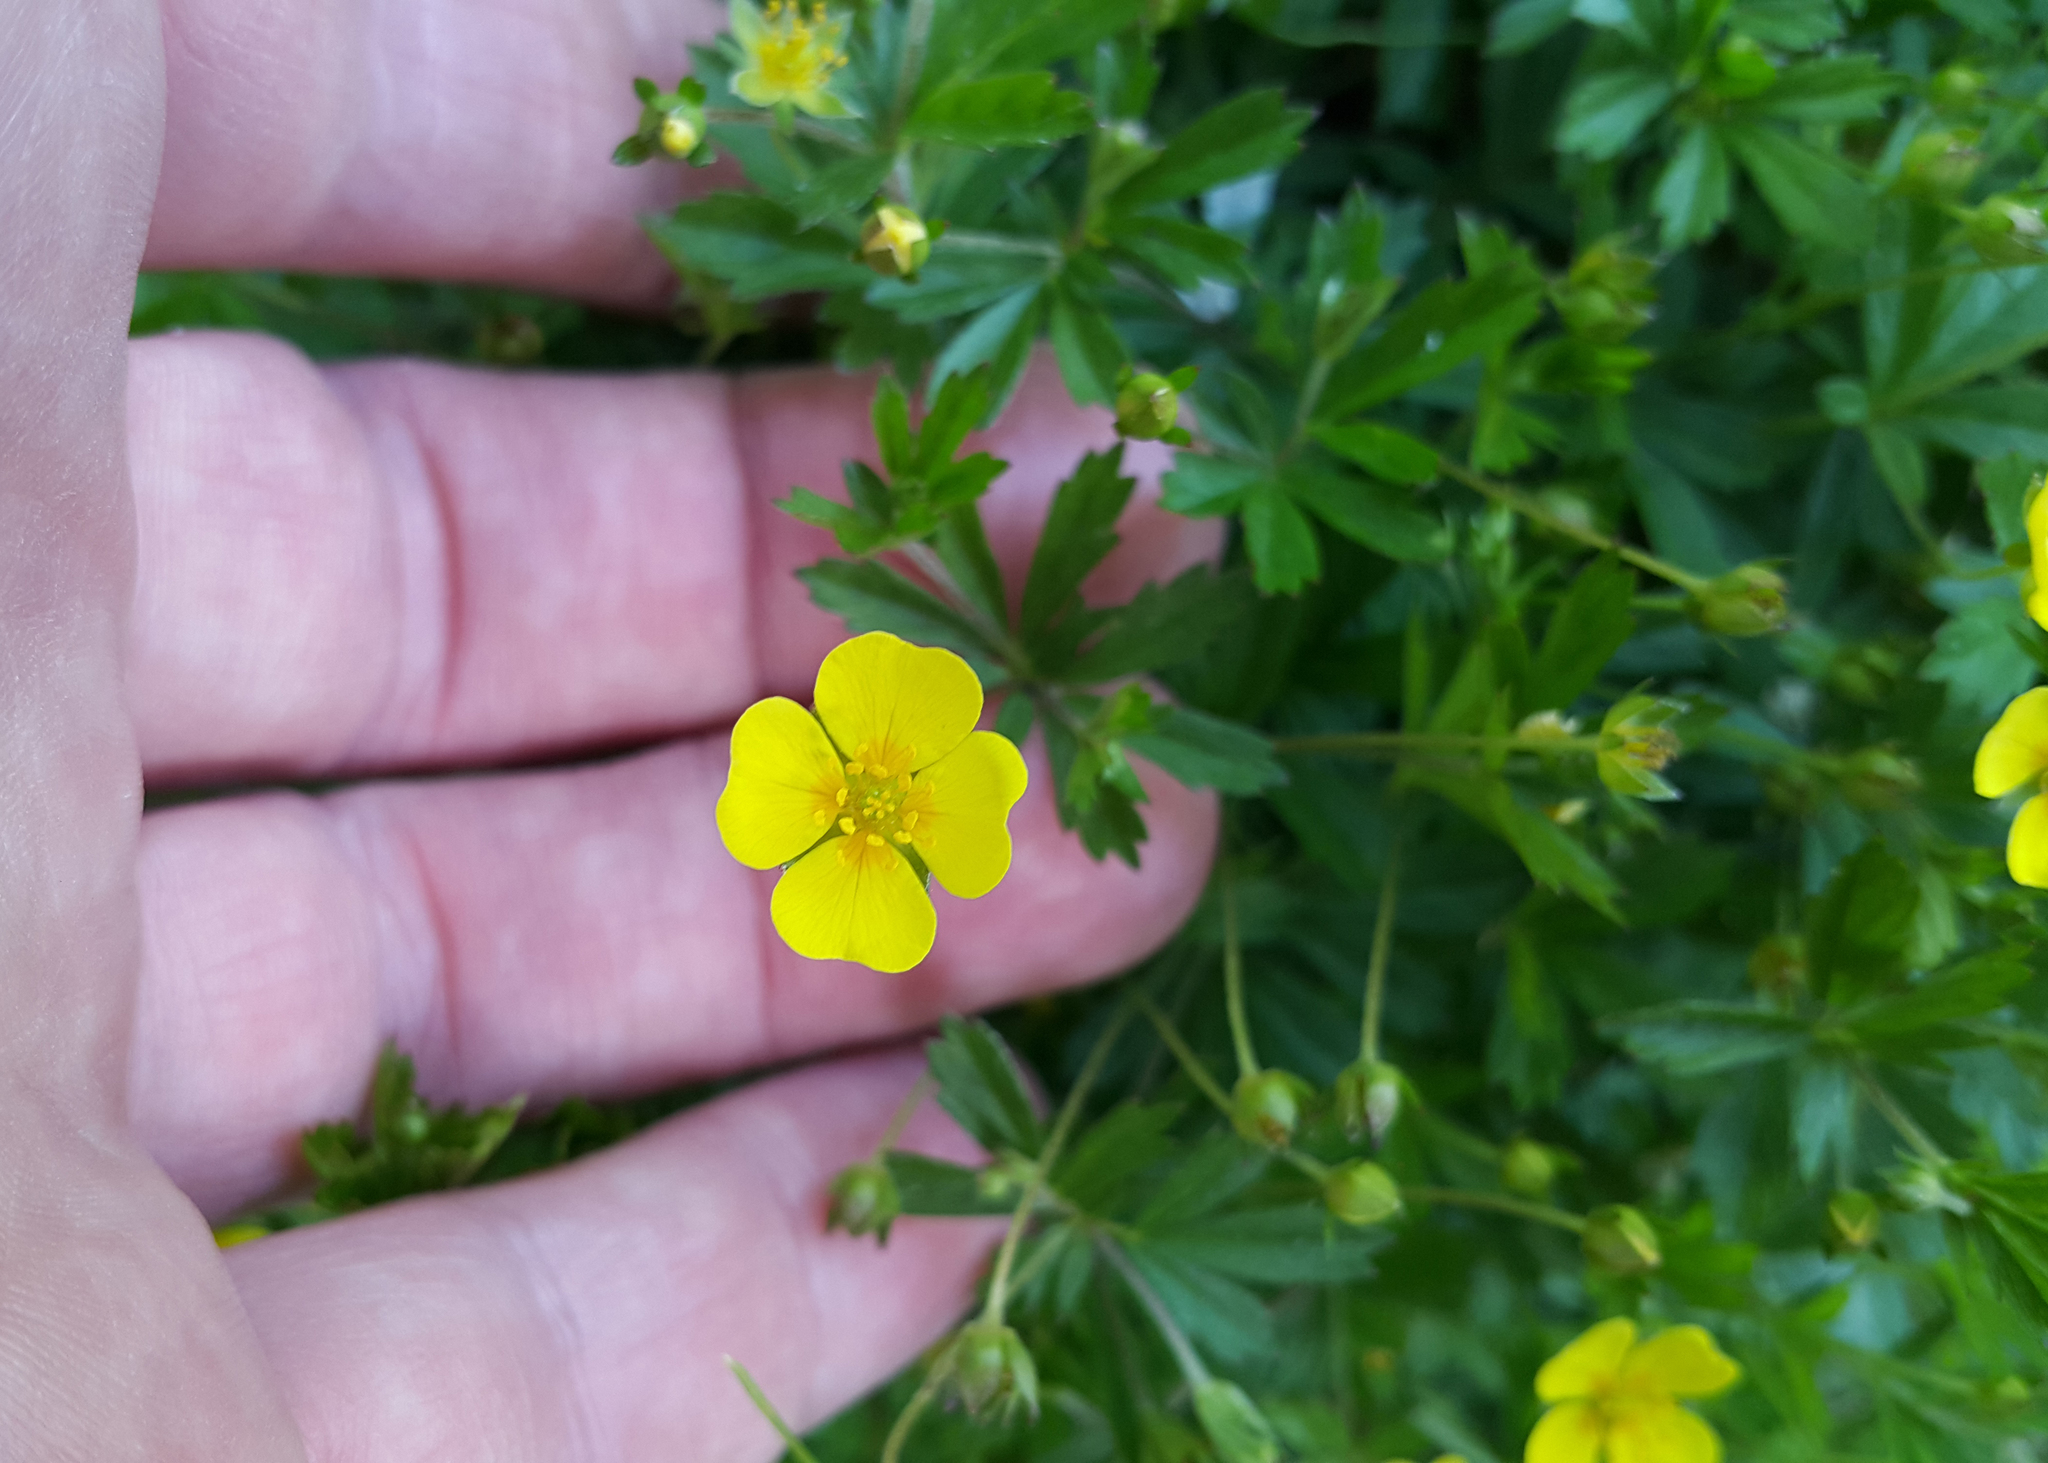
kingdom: Plantae
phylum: Tracheophyta
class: Magnoliopsida
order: Rosales
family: Rosaceae
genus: Potentilla
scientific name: Potentilla erecta
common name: Tormentil
